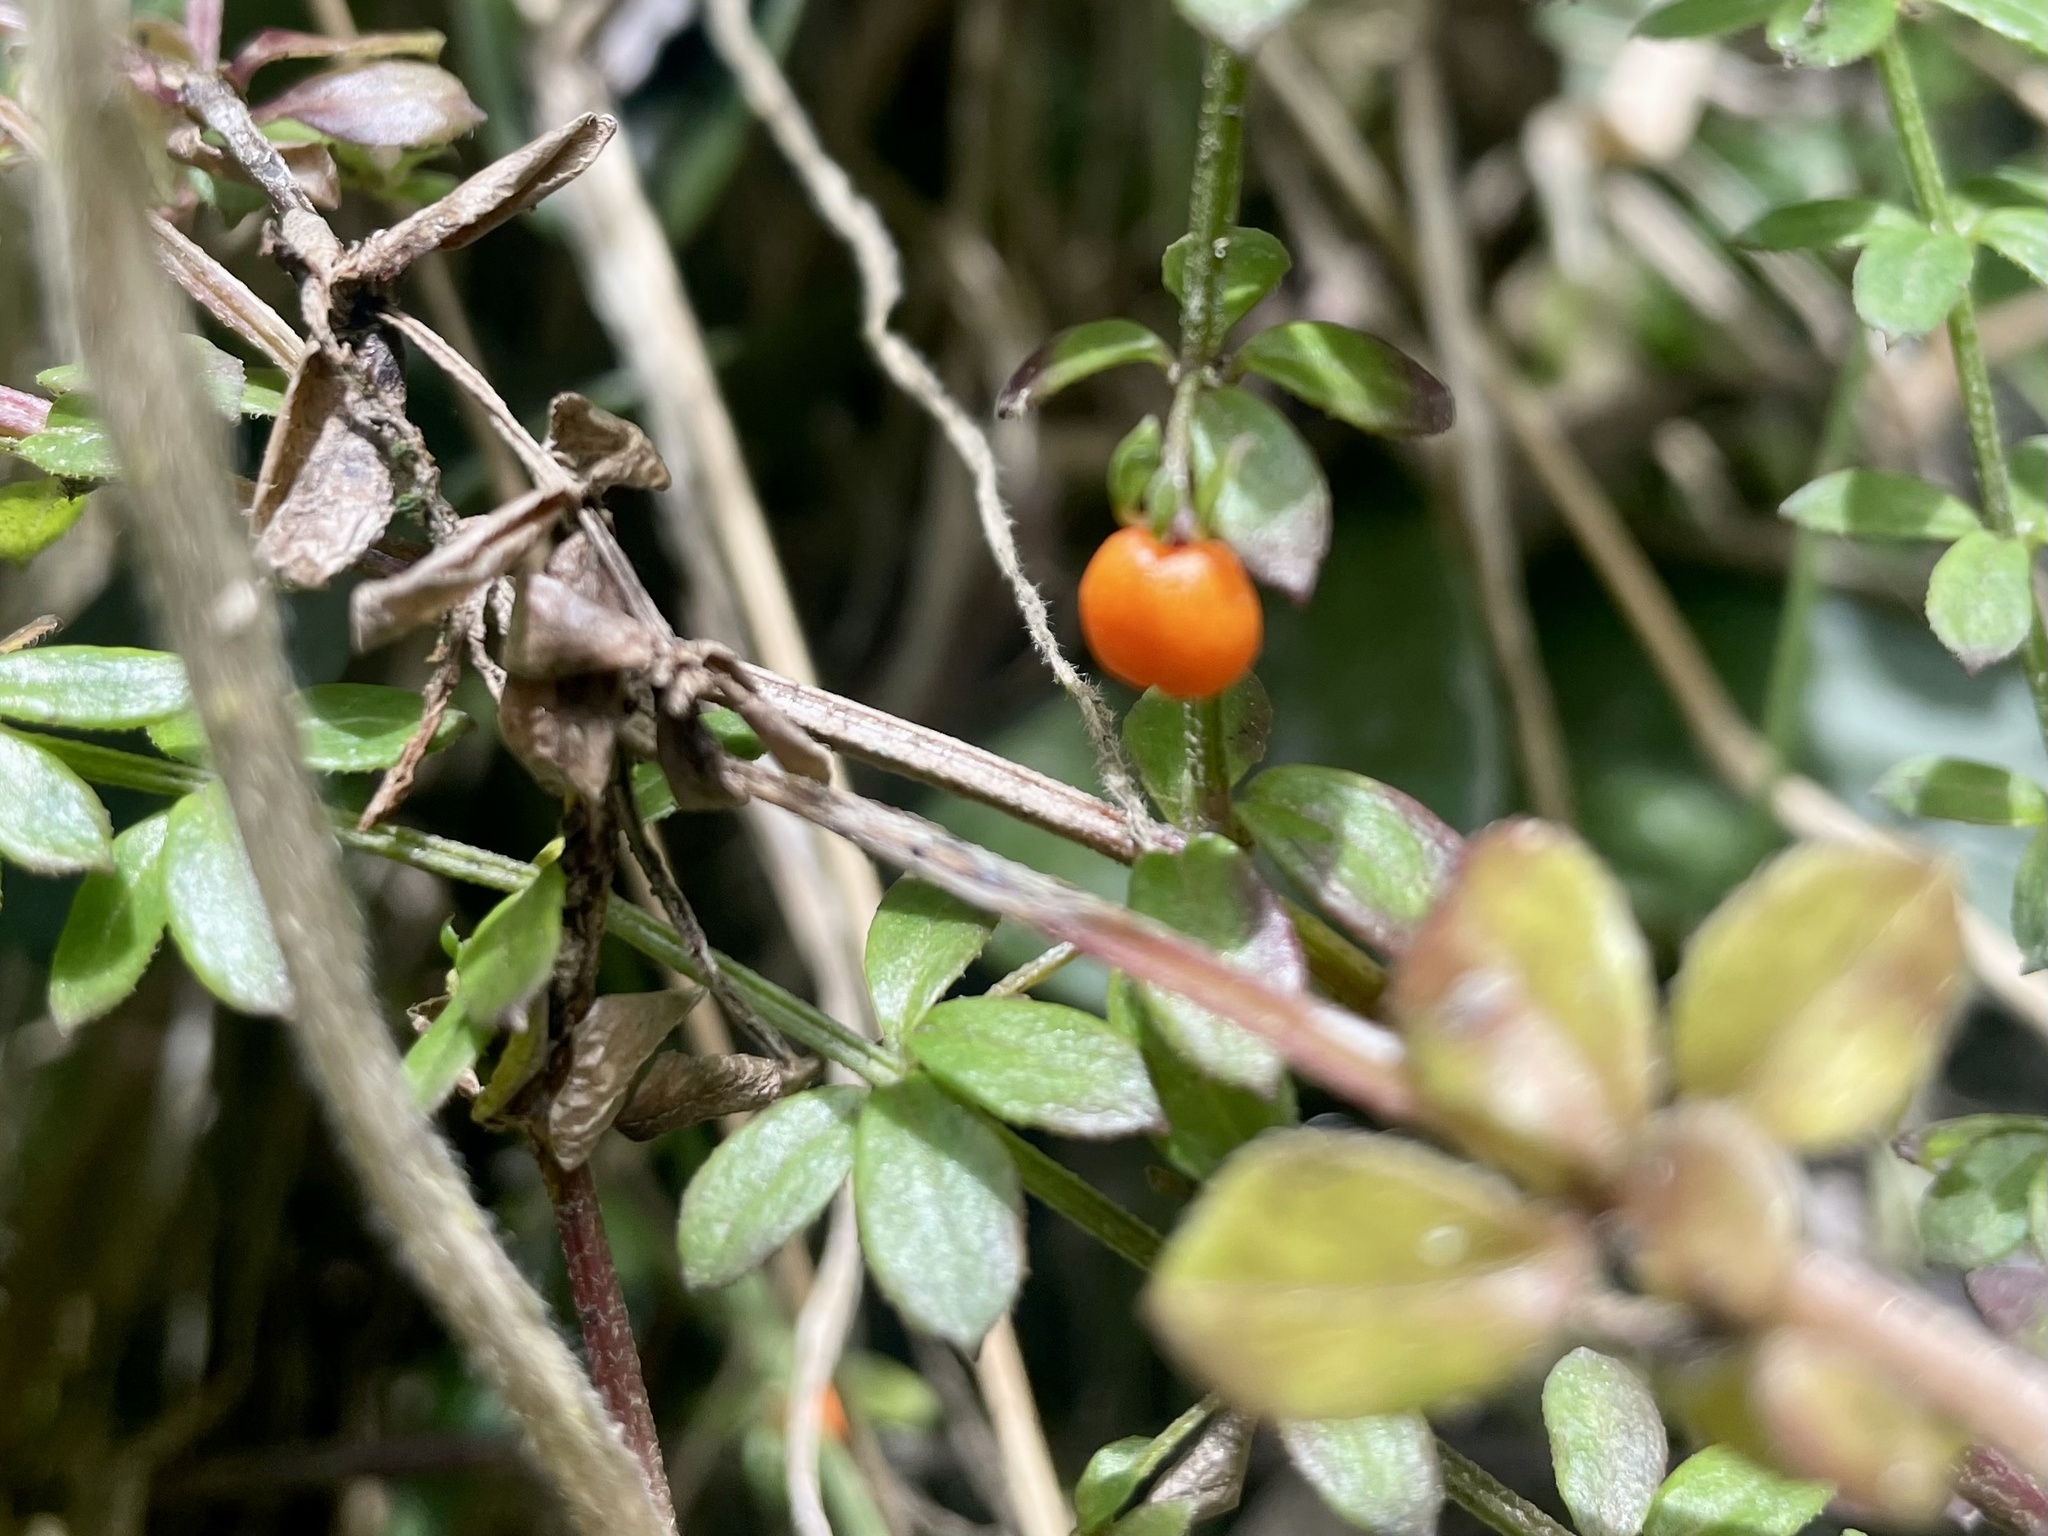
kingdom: Plantae
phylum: Tracheophyta
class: Magnoliopsida
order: Gentianales
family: Rubiaceae
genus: Galium
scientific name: Galium hypocarpium
